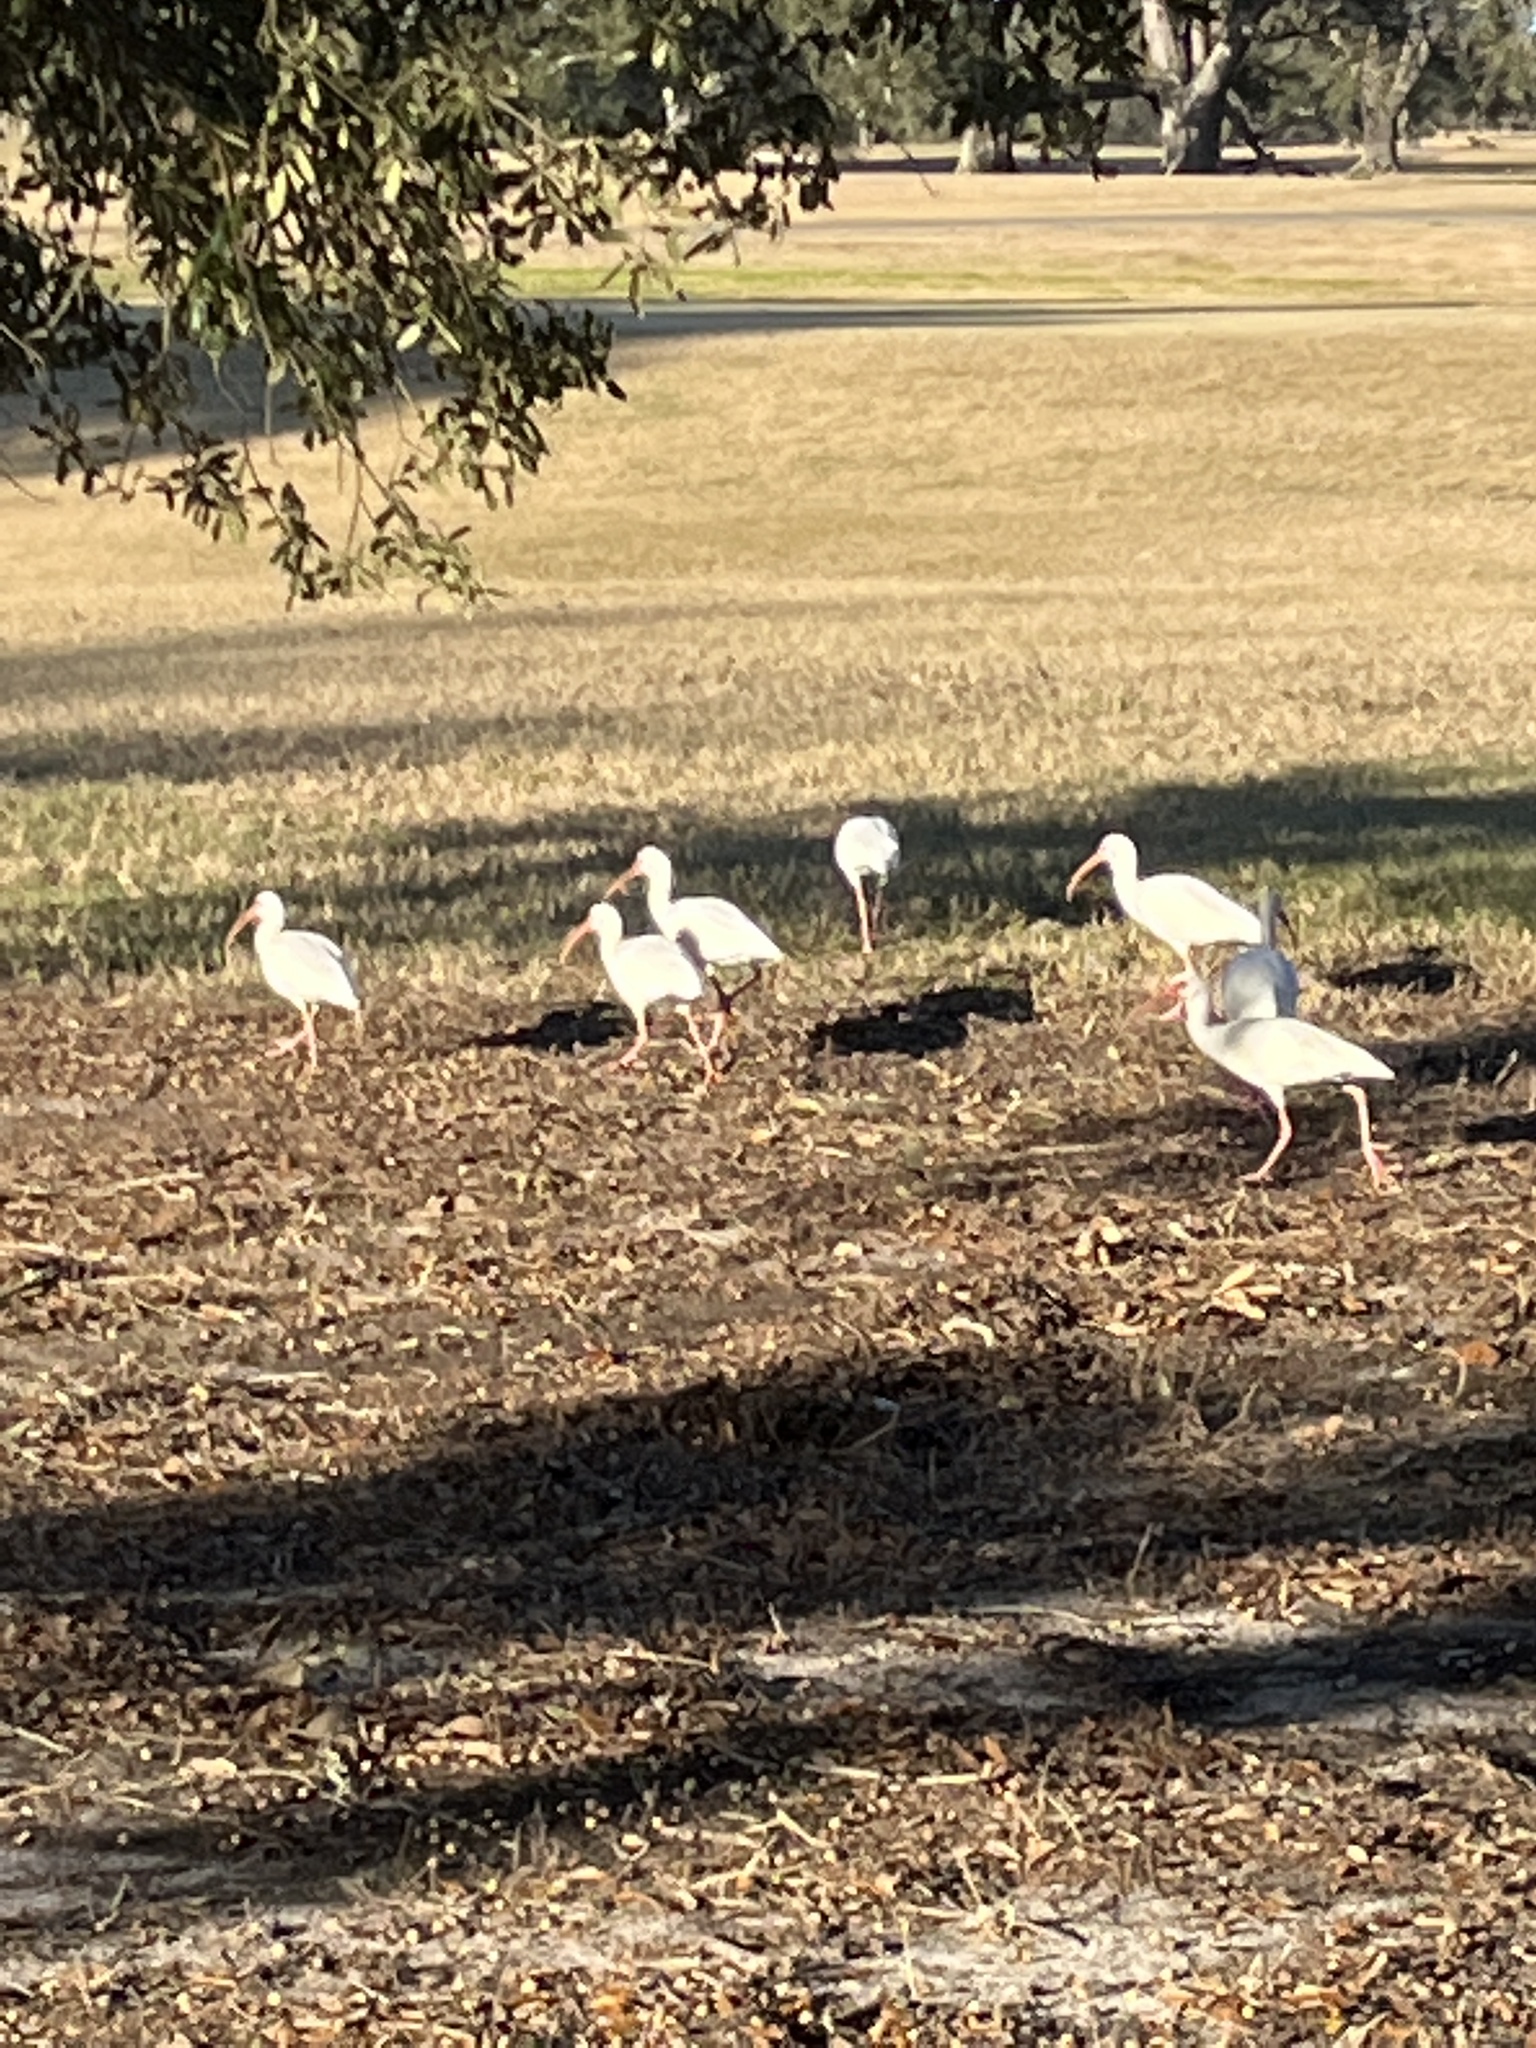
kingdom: Animalia
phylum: Chordata
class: Aves
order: Pelecaniformes
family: Threskiornithidae
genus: Eudocimus
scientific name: Eudocimus albus
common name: White ibis
